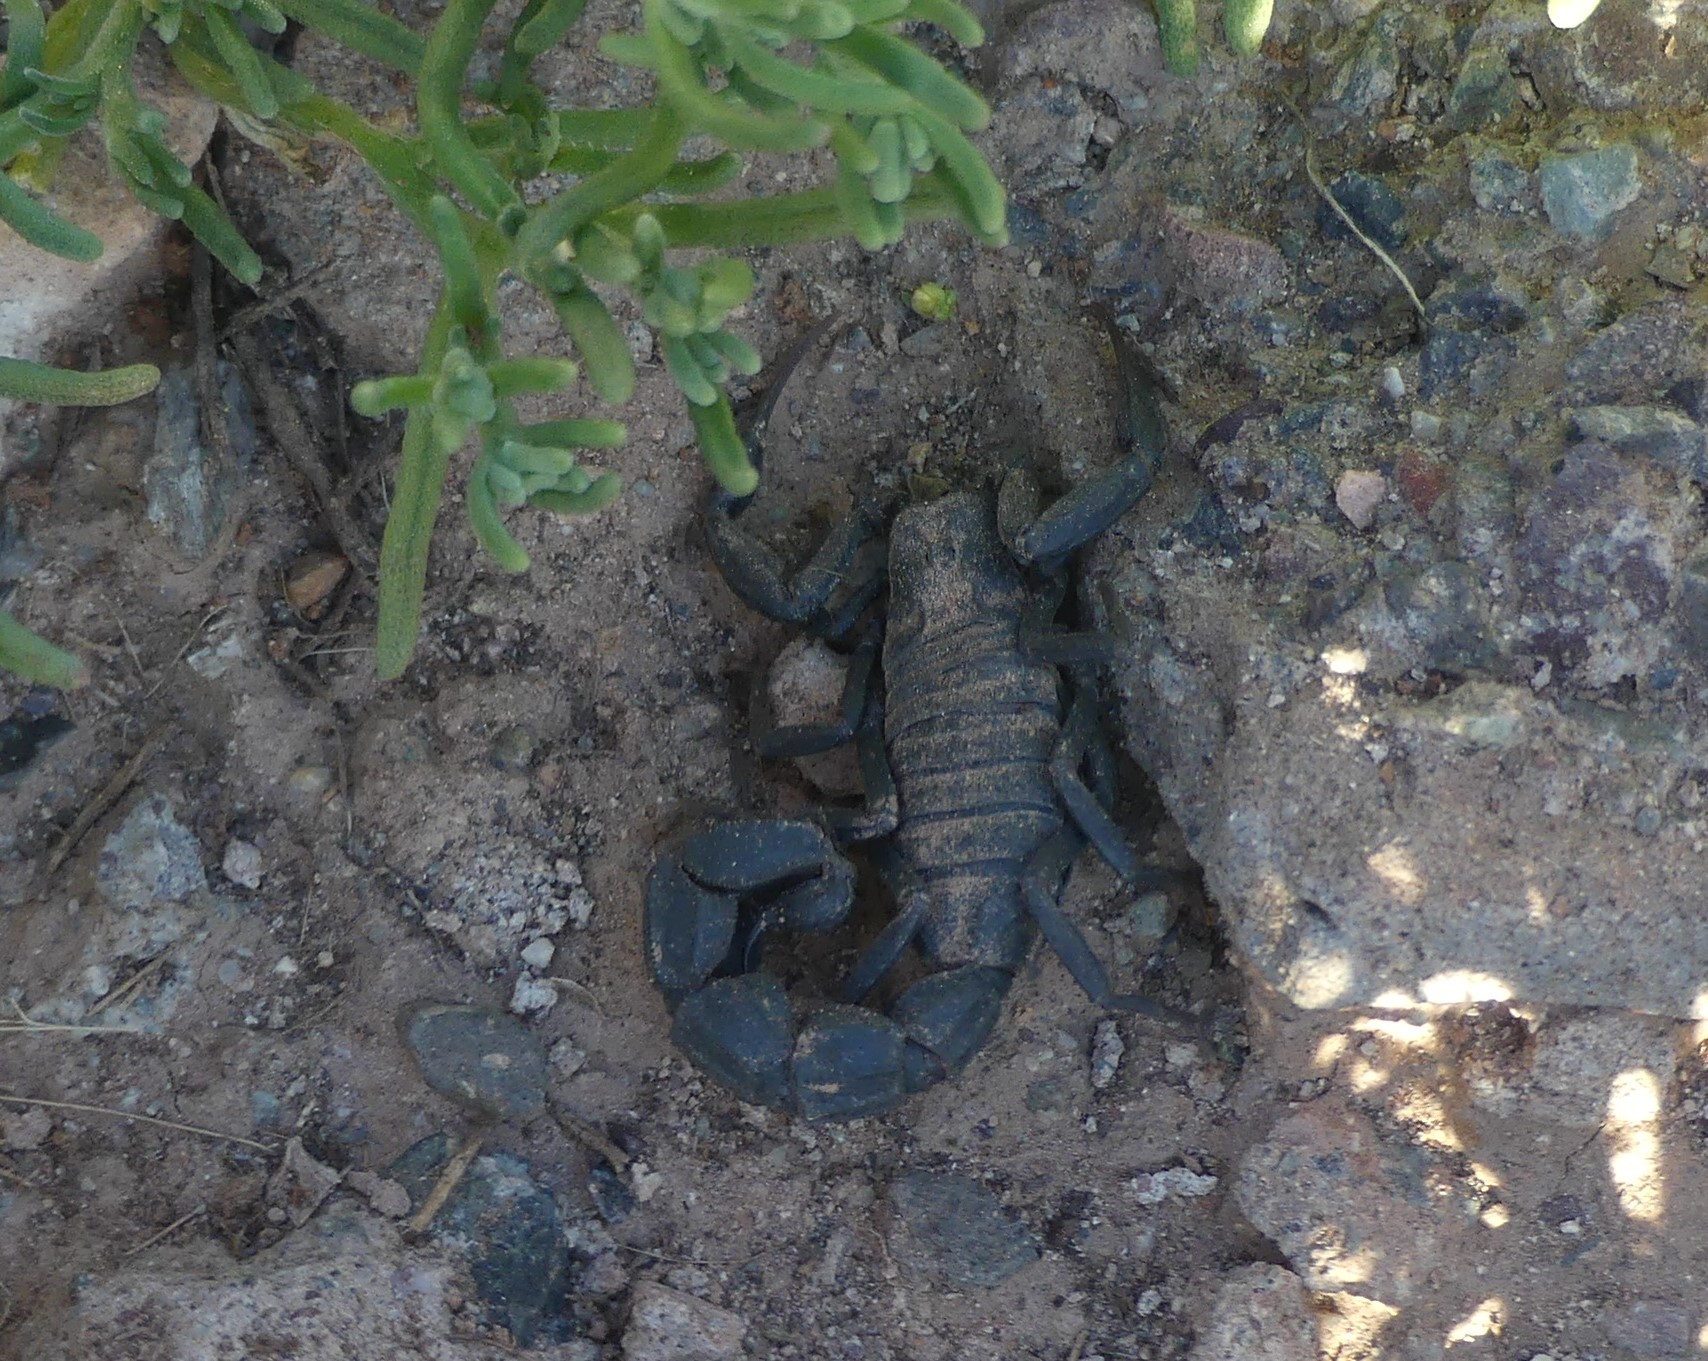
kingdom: Animalia
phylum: Arthropoda
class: Arachnida
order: Scorpiones
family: Buthidae
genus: Androctonus
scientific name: Androctonus mauritanicus
